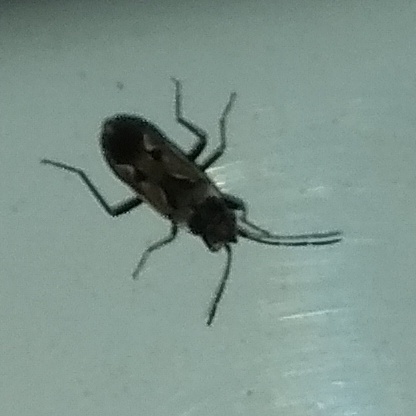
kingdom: Animalia
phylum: Arthropoda
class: Insecta
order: Hemiptera
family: Rhyparochromidae
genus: Rhyparochromus
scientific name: Rhyparochromus vulgaris
